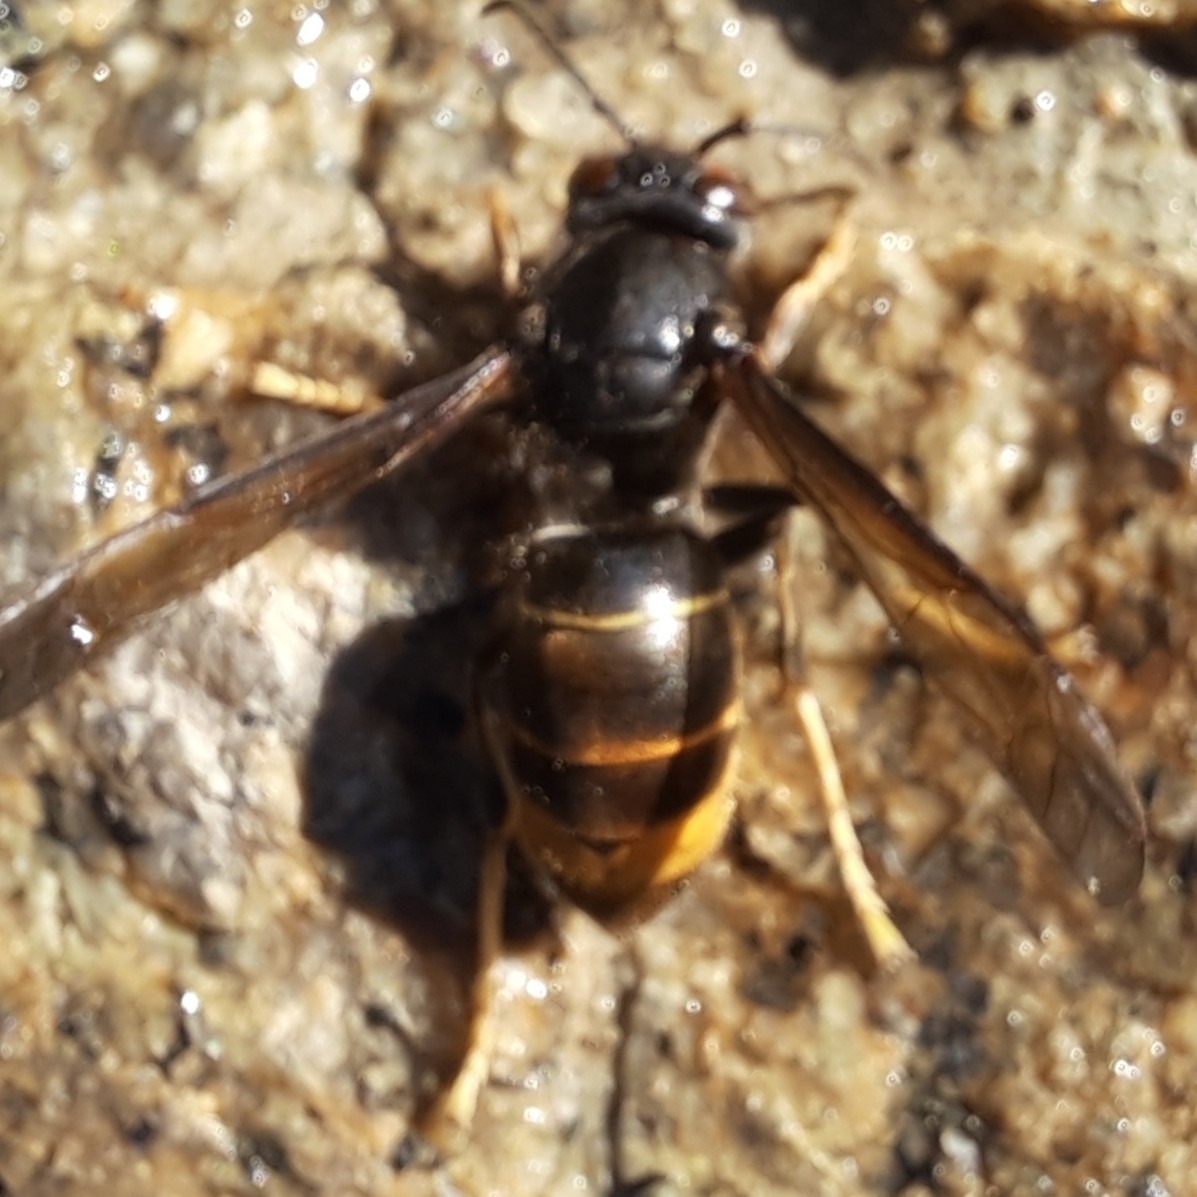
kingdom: Animalia
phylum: Arthropoda
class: Insecta
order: Hymenoptera
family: Vespidae
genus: Vespa
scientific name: Vespa velutina
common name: Asian hornet
